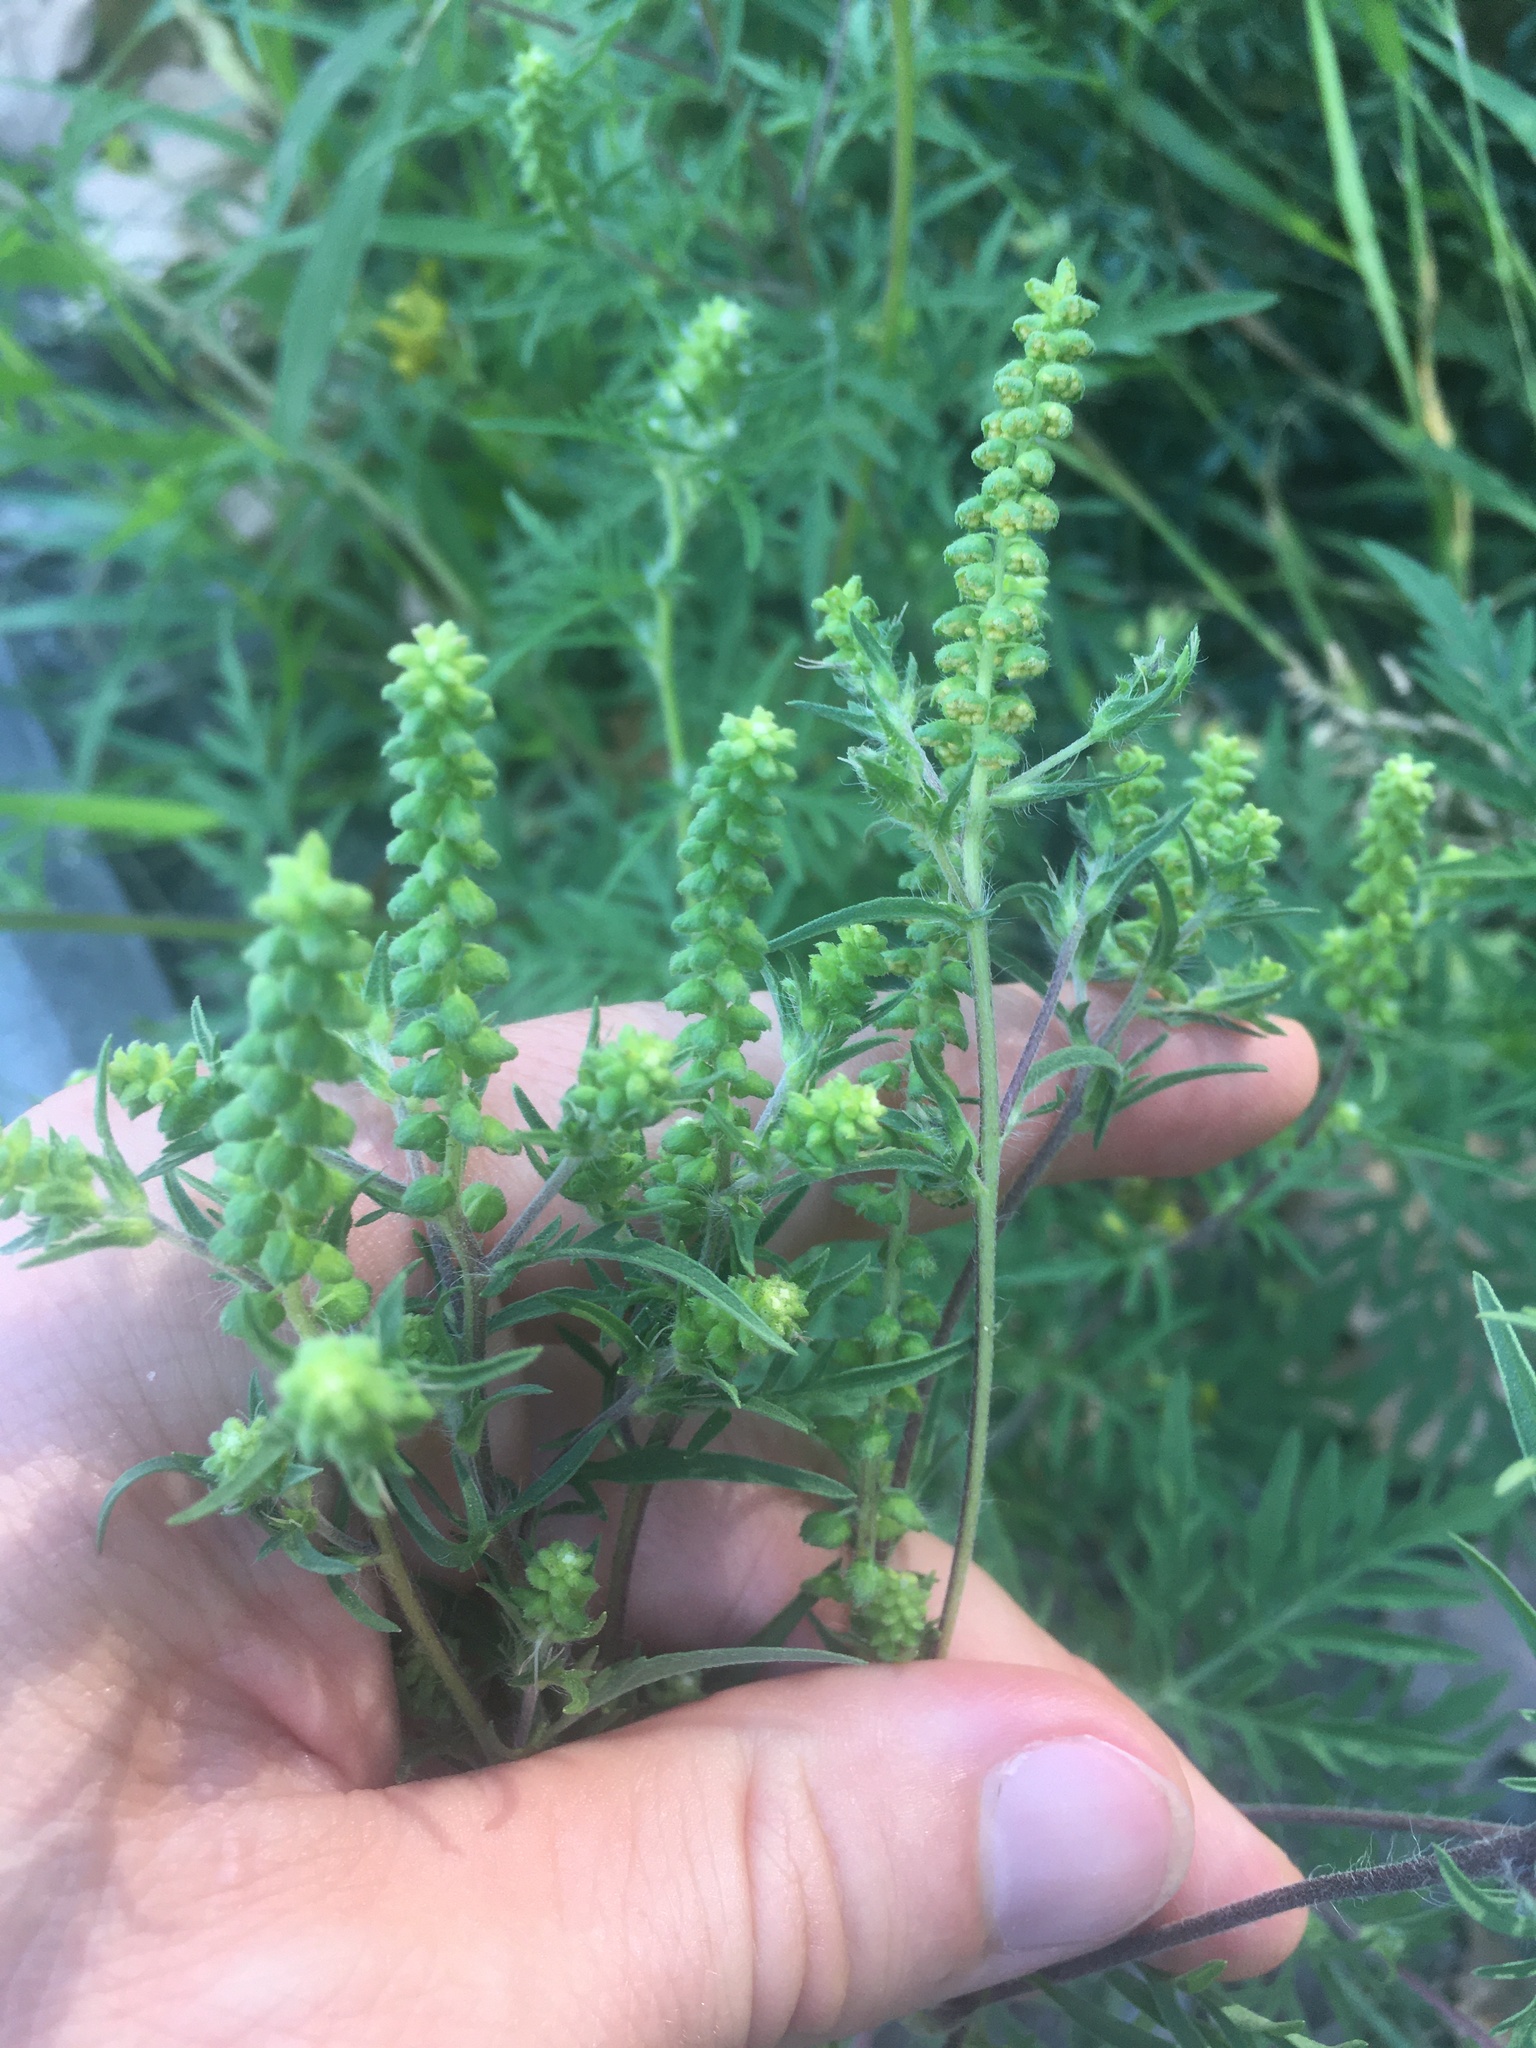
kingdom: Plantae
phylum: Tracheophyta
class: Magnoliopsida
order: Asterales
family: Asteraceae
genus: Ambrosia
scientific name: Ambrosia artemisiifolia
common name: Annual ragweed
